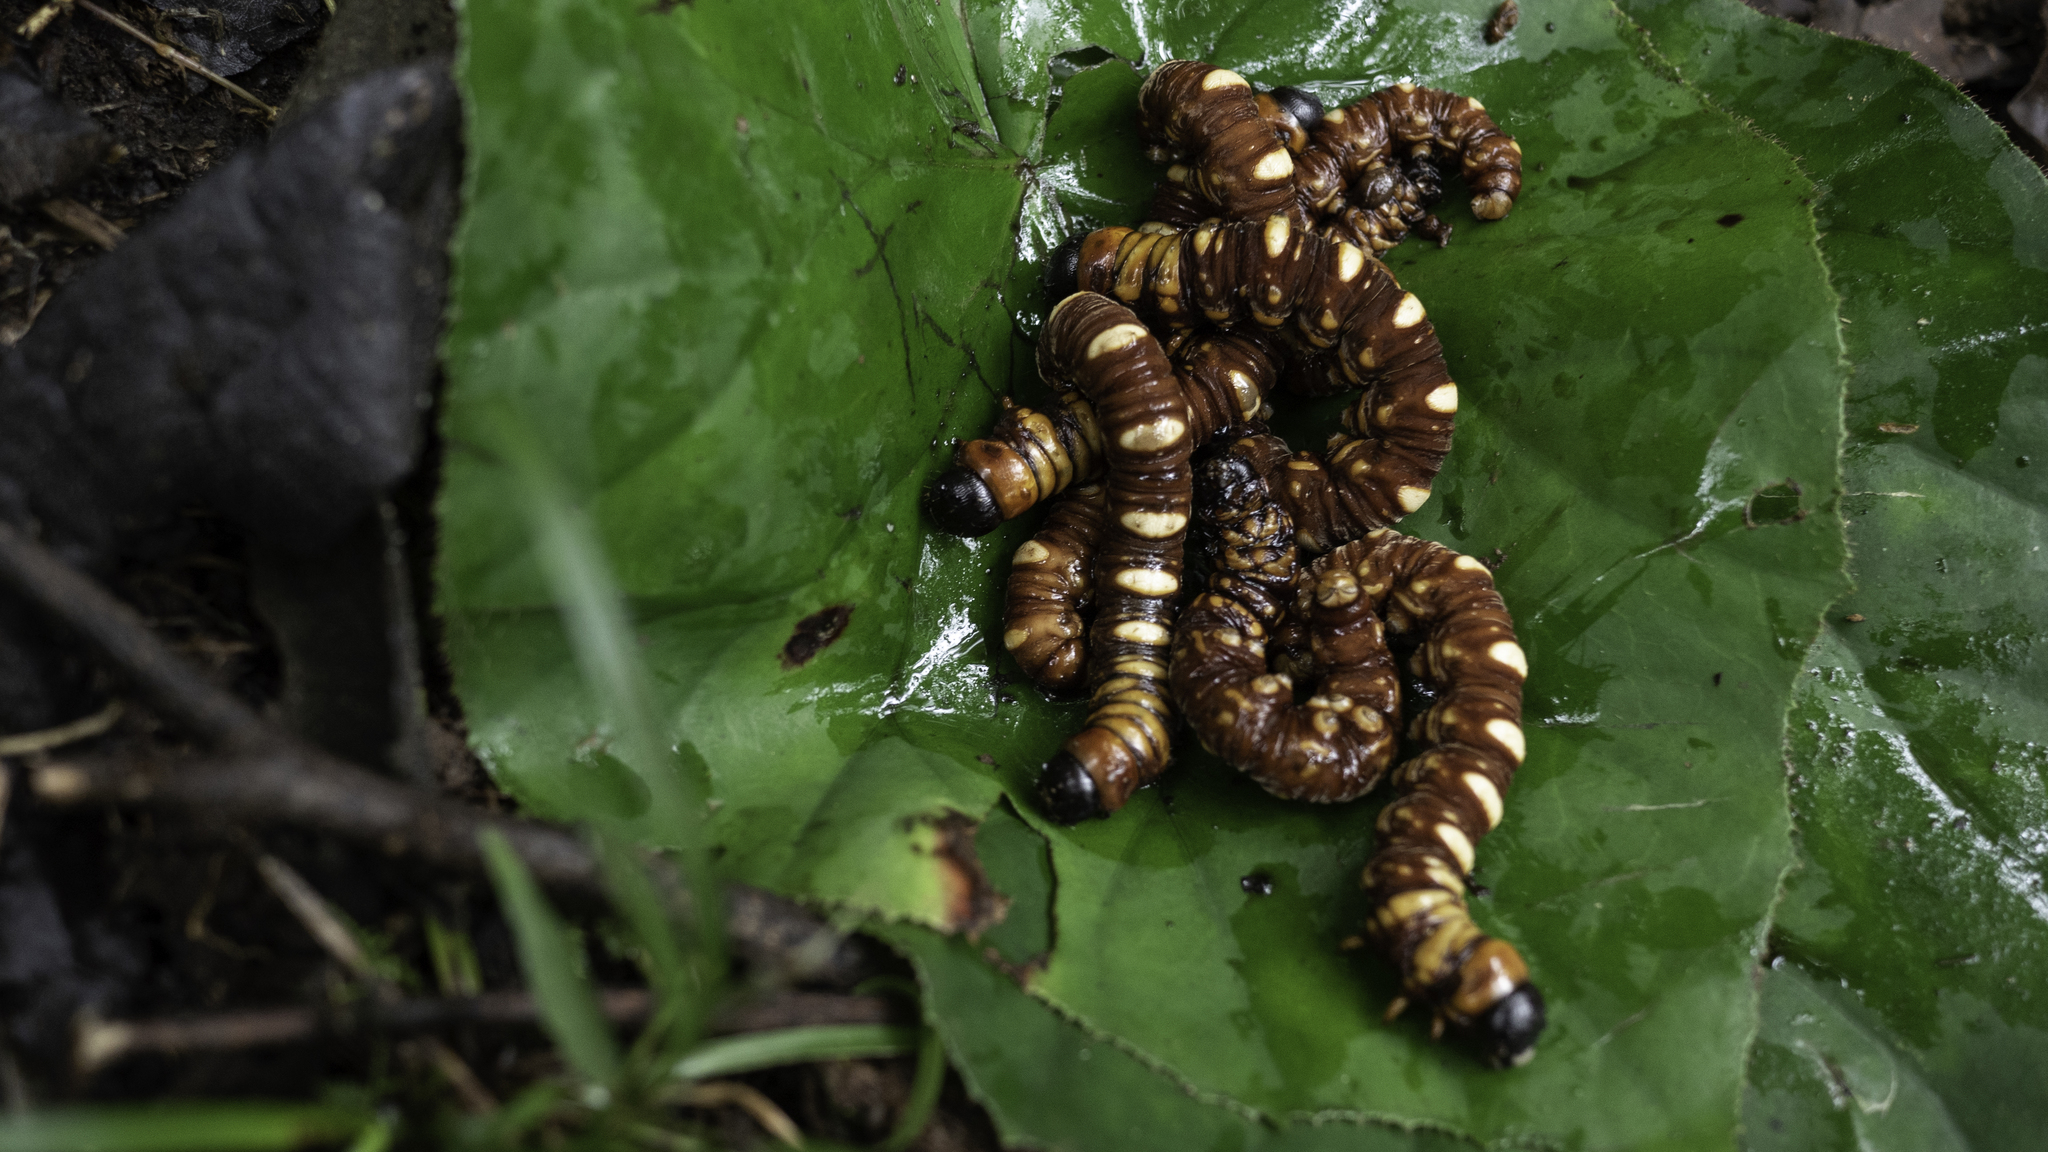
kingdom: Animalia
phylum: Arthropoda
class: Insecta
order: Lepidoptera
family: Hepialidae
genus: Phassus
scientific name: Phassus triangularis
